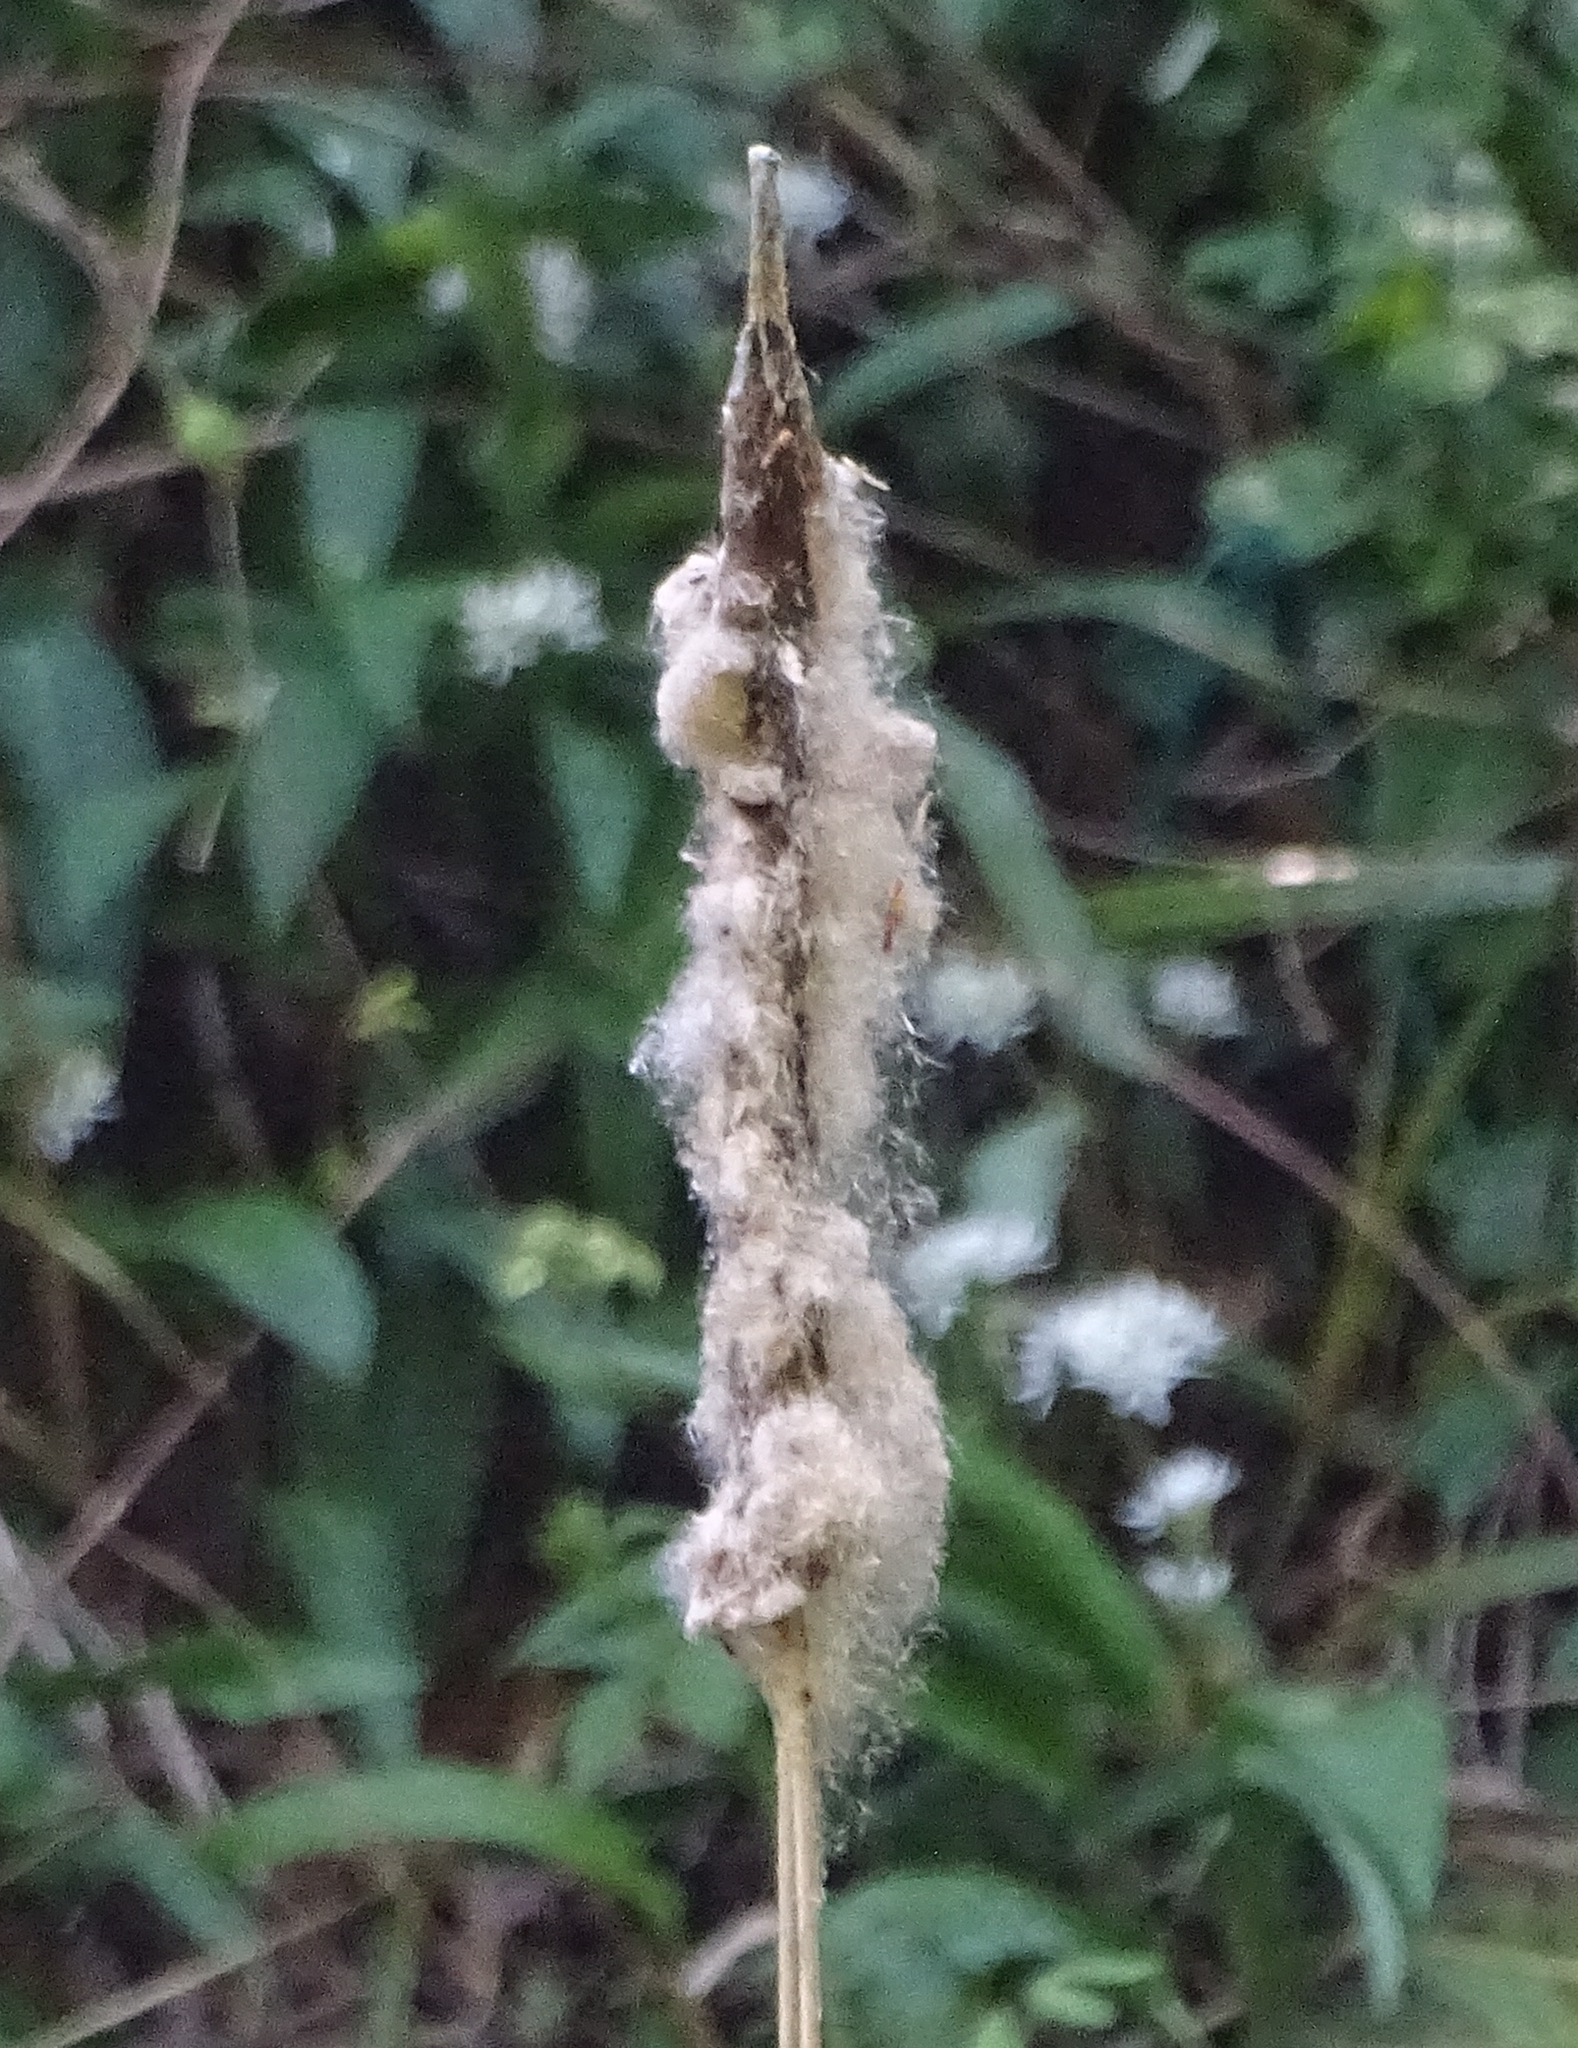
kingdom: Plantae
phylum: Tracheophyta
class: Liliopsida
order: Poales
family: Typhaceae
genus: Typha
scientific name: Typha latifolia
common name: Broadleaf cattail
